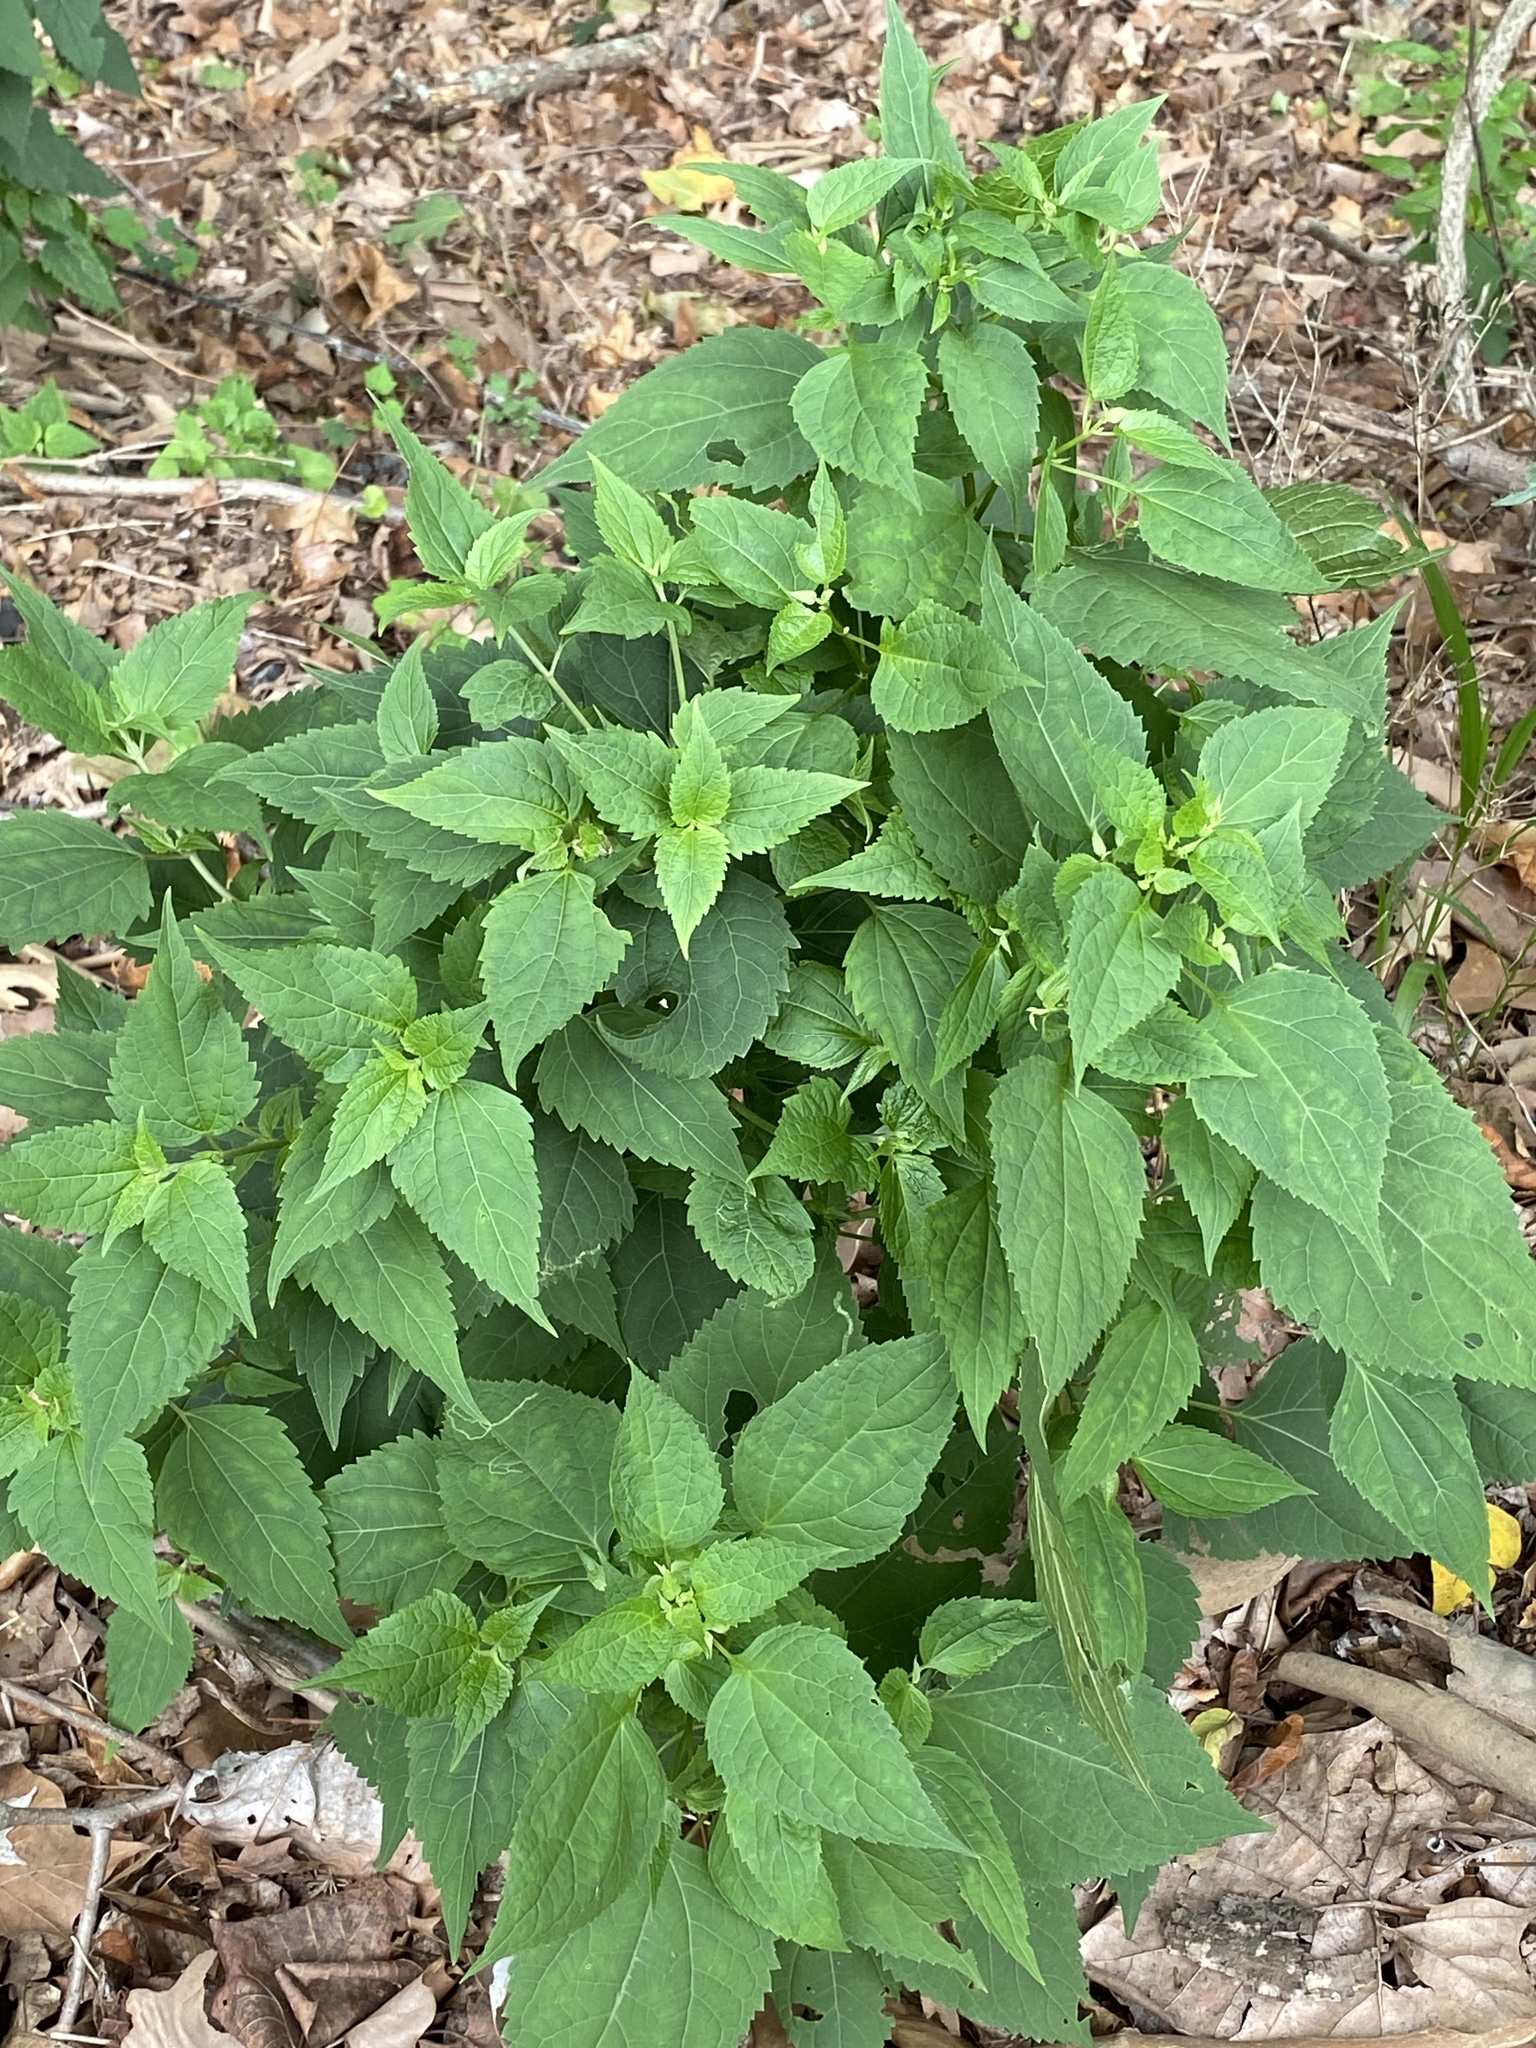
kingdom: Plantae
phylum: Tracheophyta
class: Magnoliopsida
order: Asterales
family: Asteraceae
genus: Ageratina
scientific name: Ageratina altissima
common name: White snakeroot
